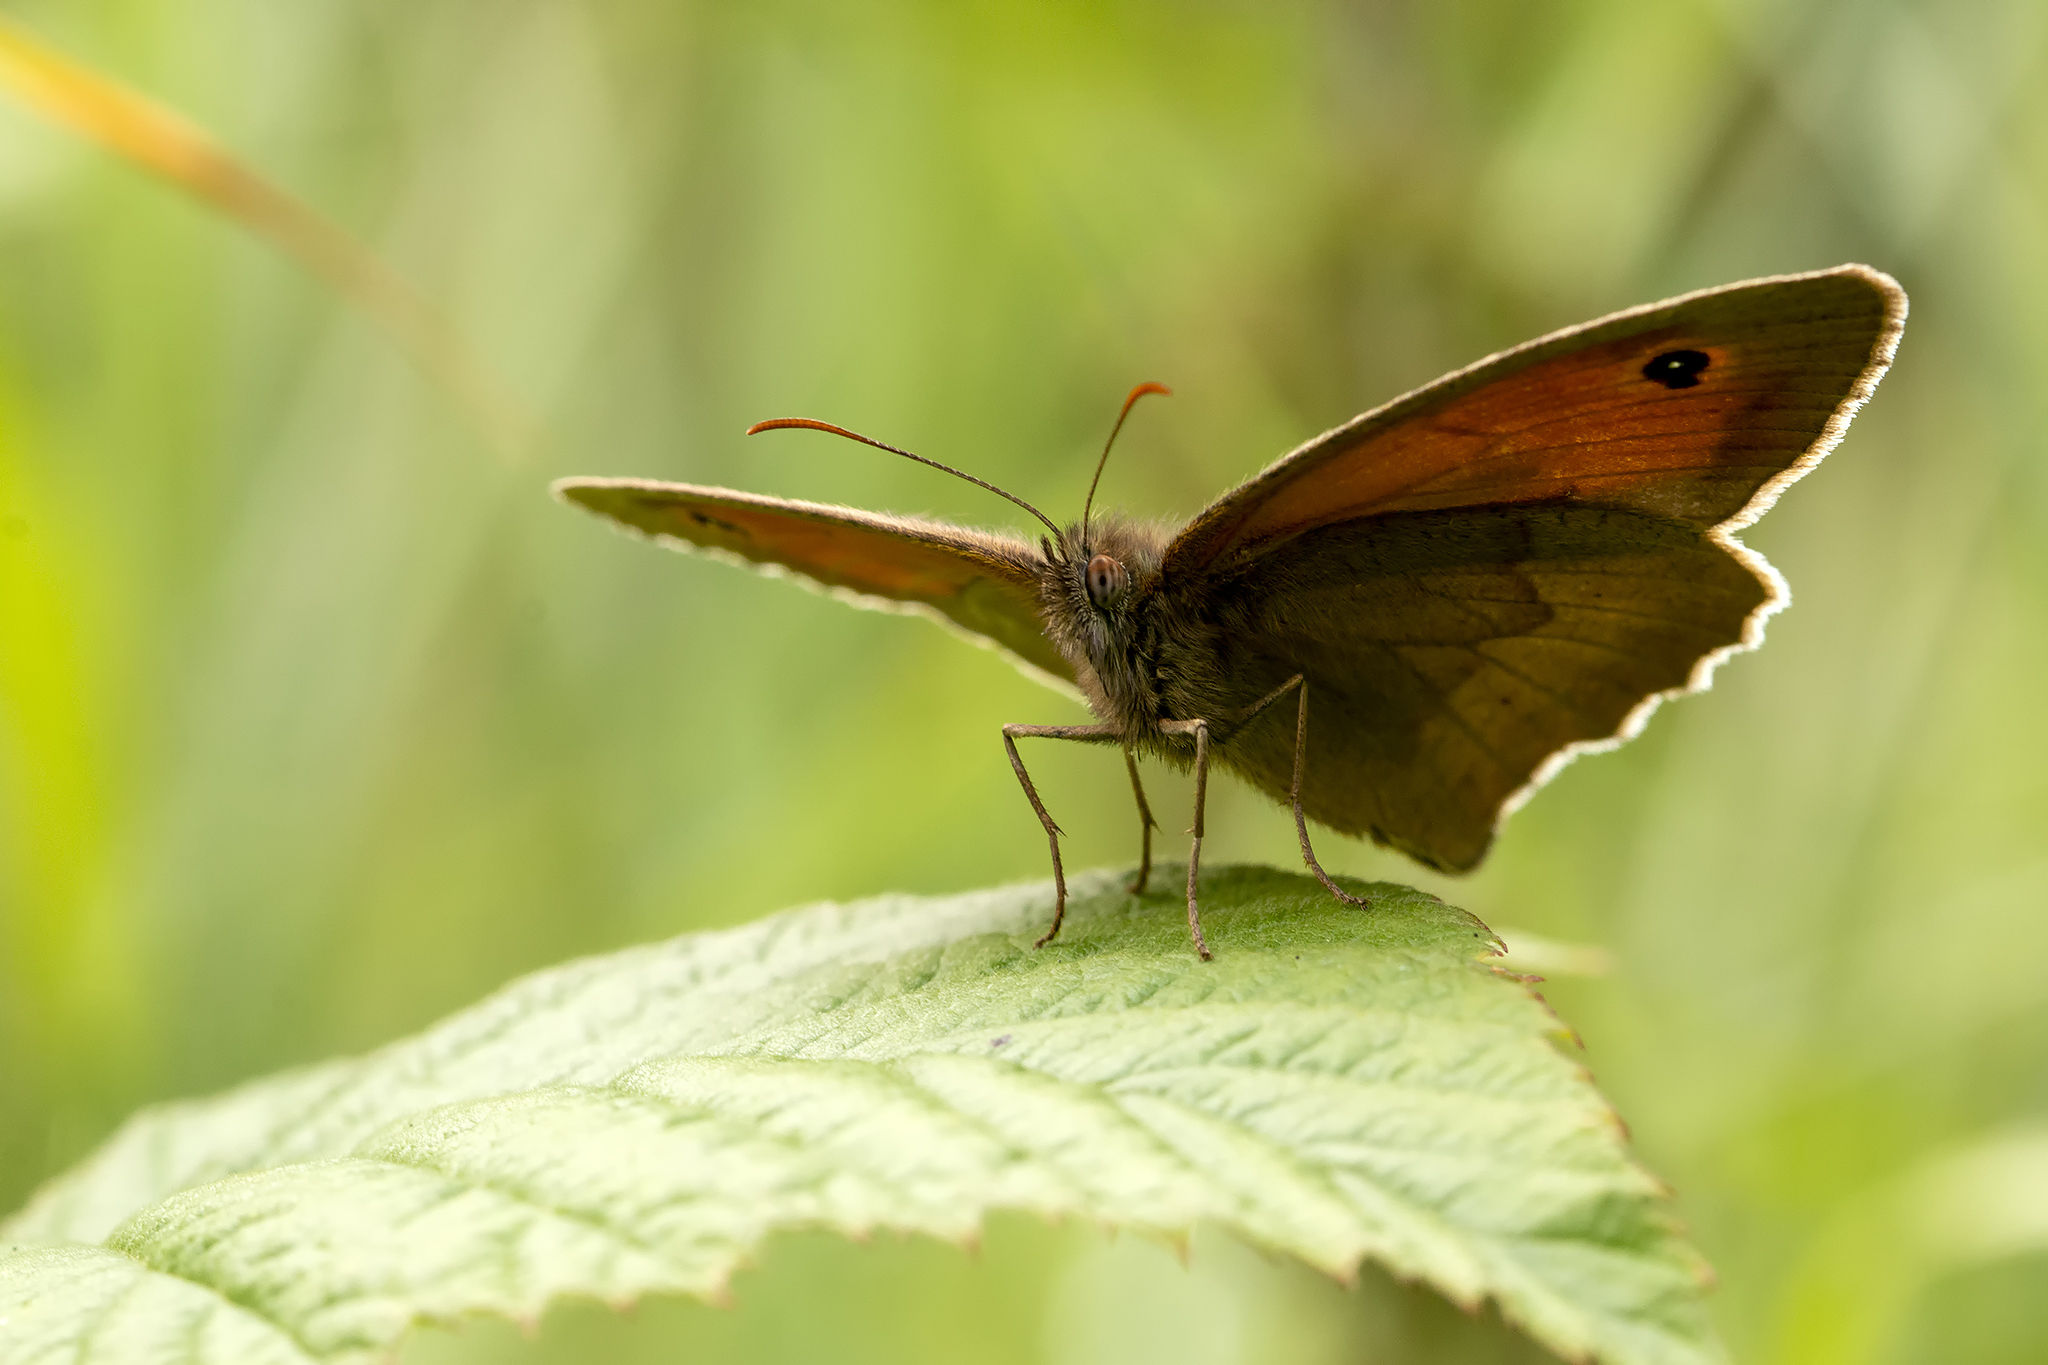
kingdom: Animalia
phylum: Arthropoda
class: Insecta
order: Lepidoptera
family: Nymphalidae
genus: Maniola
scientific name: Maniola jurtina
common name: Meadow brown
